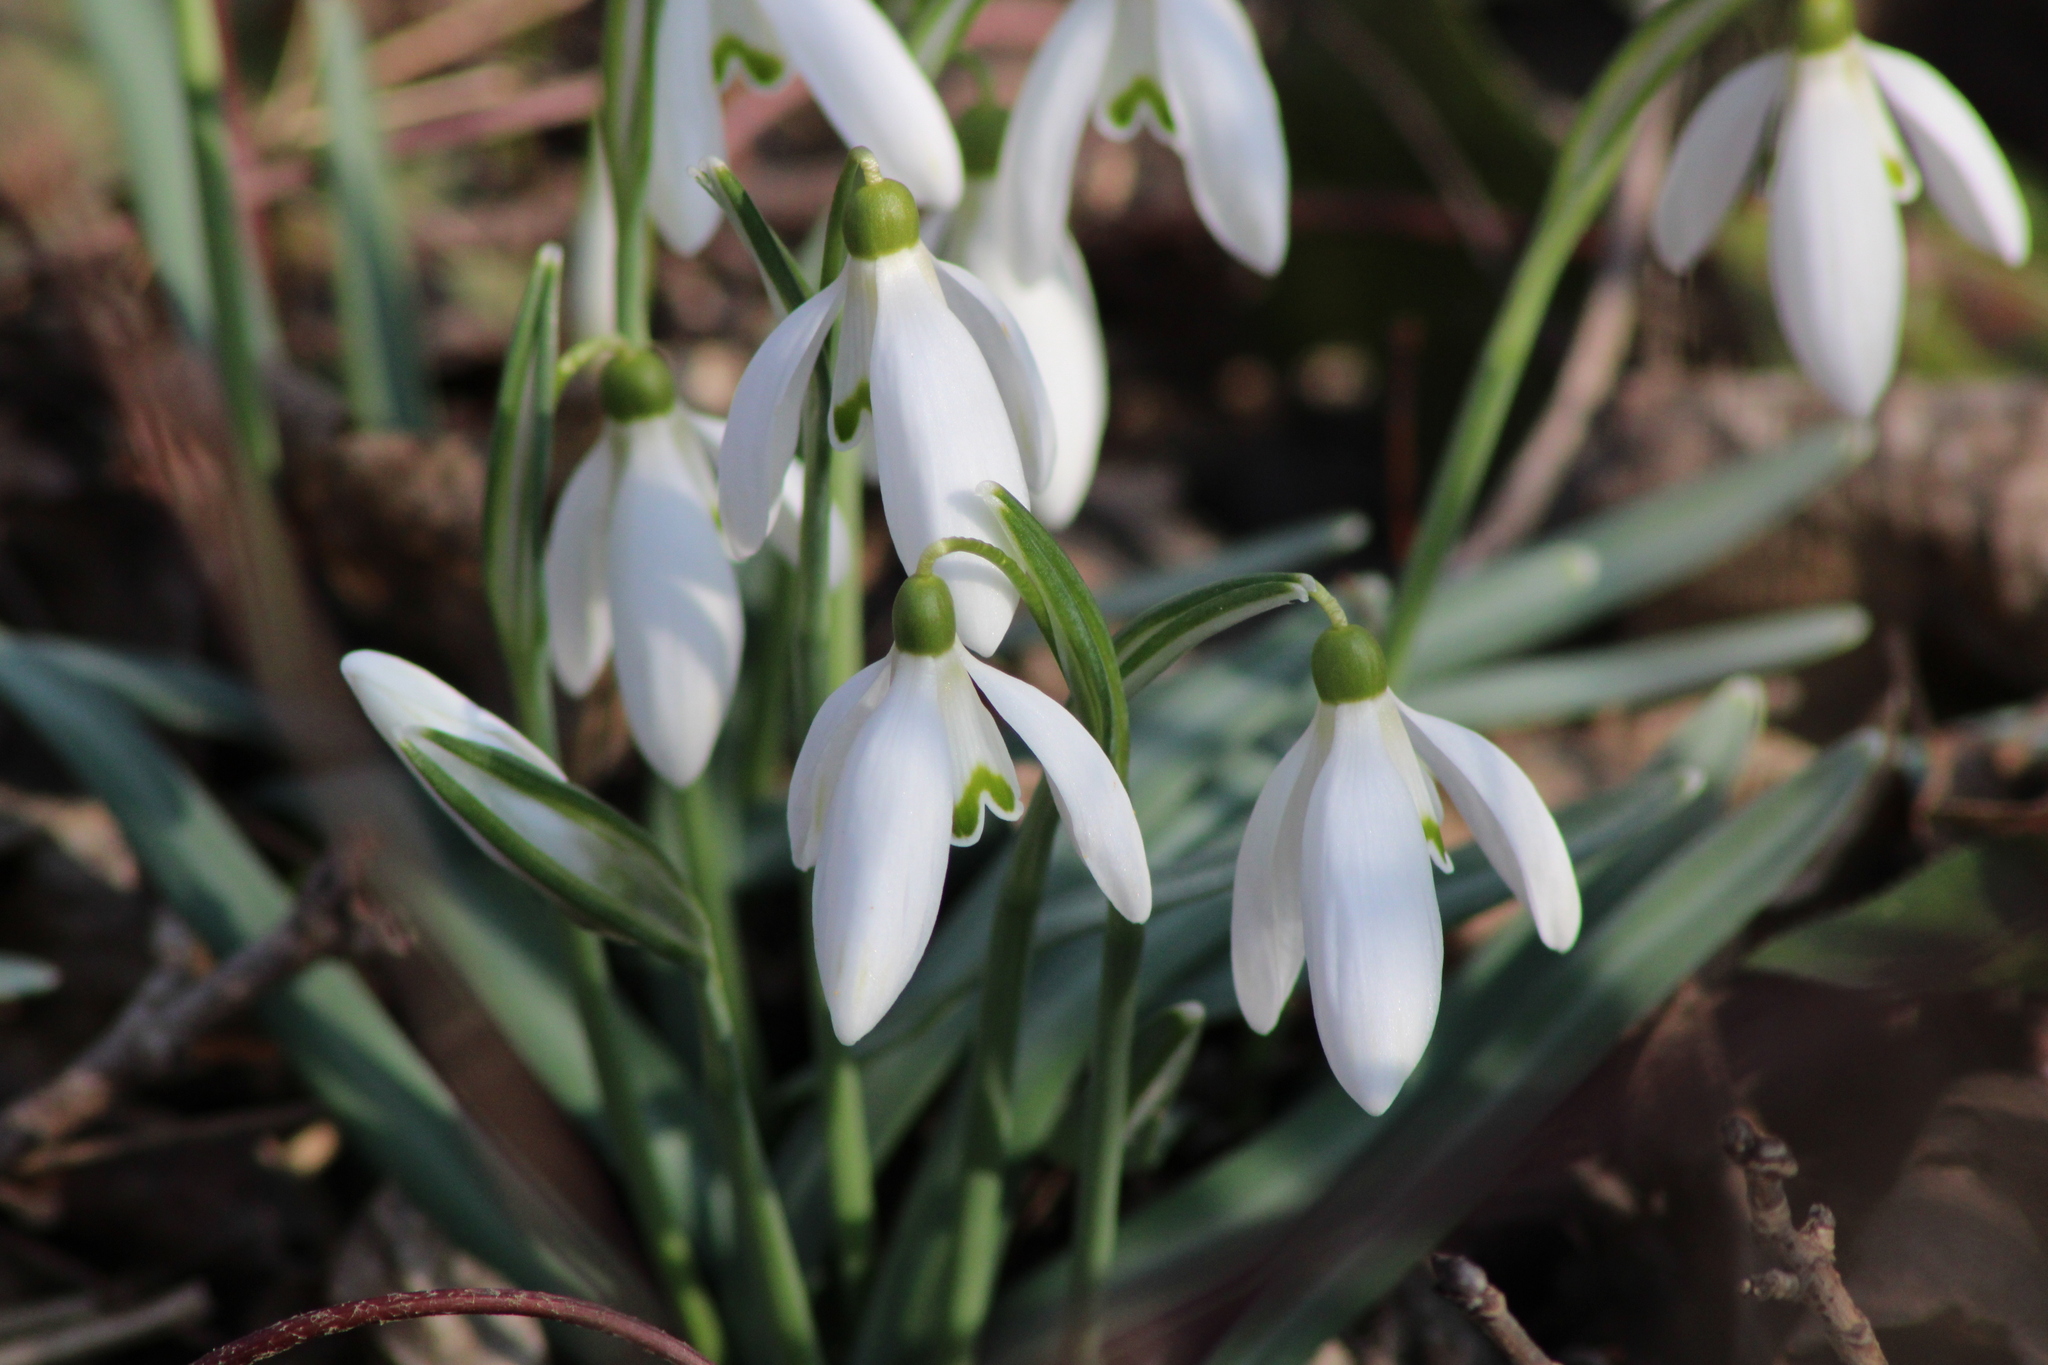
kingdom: Plantae
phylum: Tracheophyta
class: Liliopsida
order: Asparagales
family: Amaryllidaceae
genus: Galanthus
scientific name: Galanthus nivalis
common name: Snowdrop
